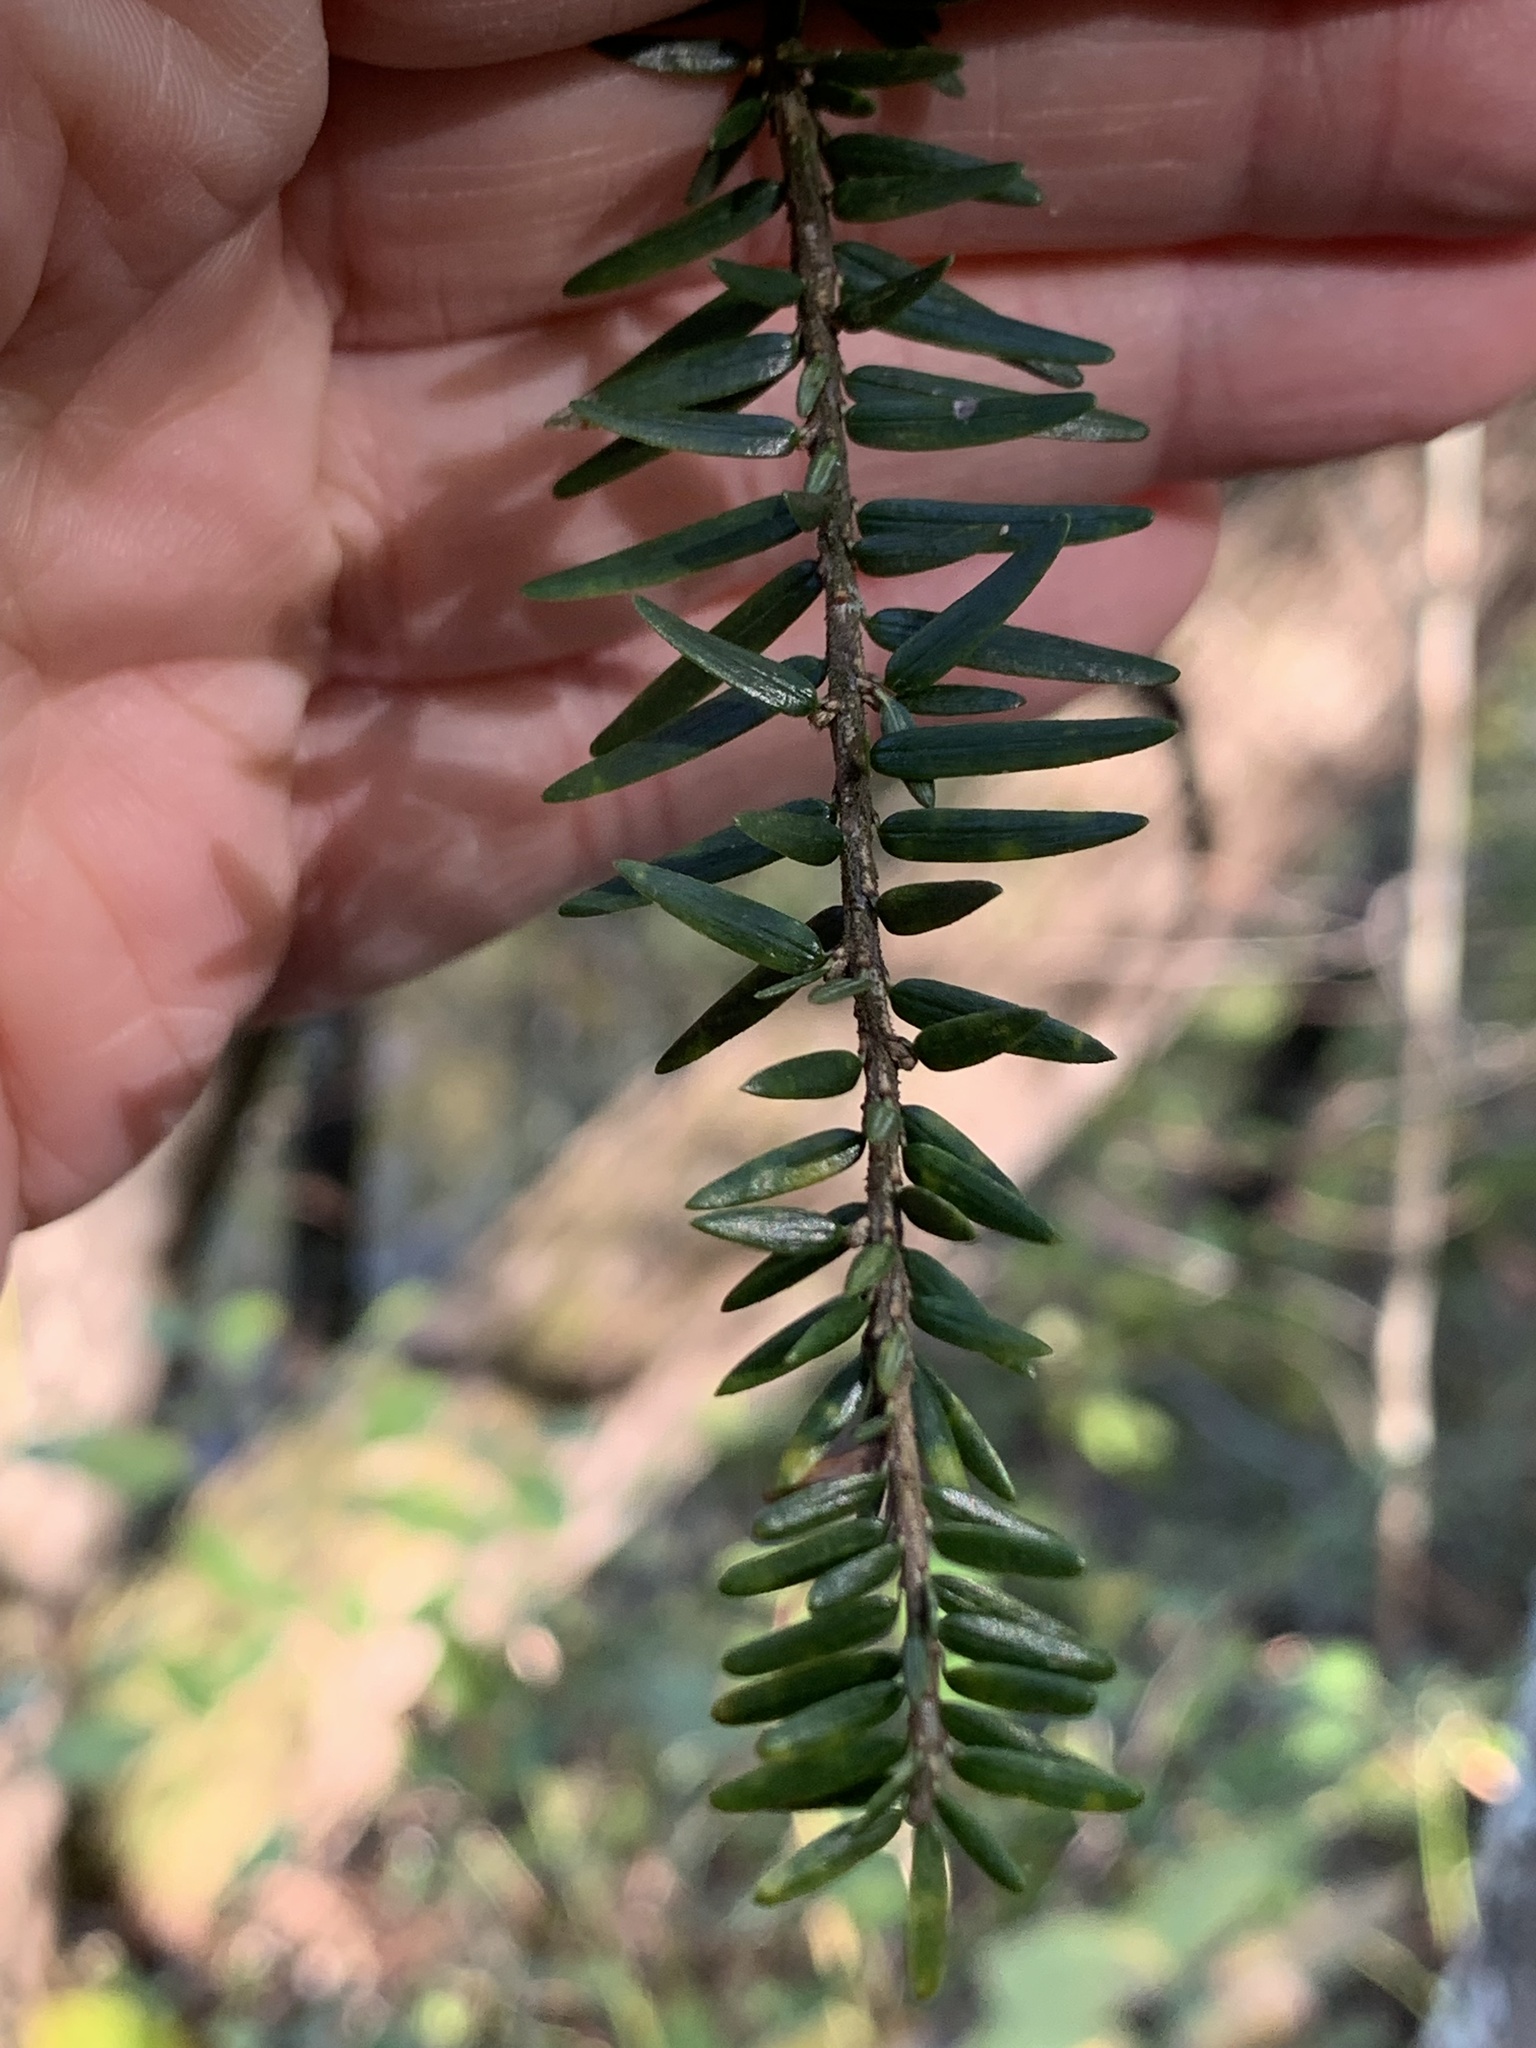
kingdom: Plantae
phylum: Tracheophyta
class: Pinopsida
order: Pinales
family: Pinaceae
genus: Tsuga
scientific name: Tsuga canadensis
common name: Eastern hemlock
